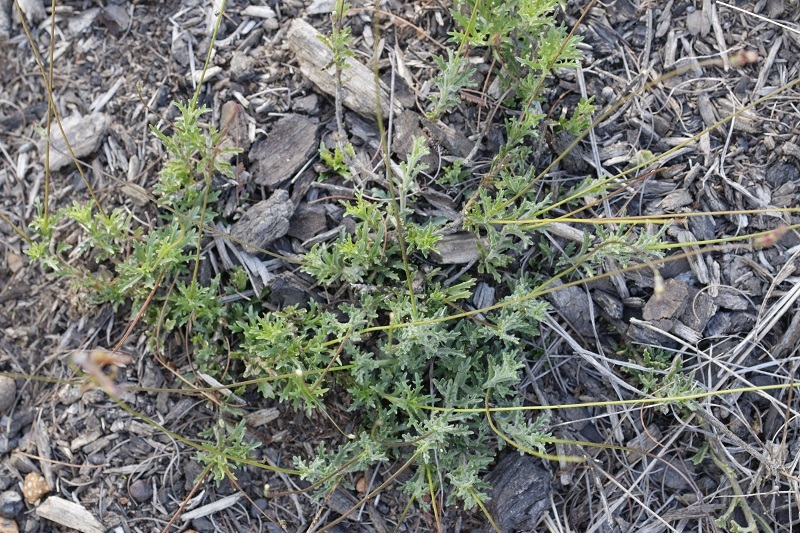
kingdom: Plantae
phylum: Tracheophyta
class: Magnoliopsida
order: Asterales
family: Campanulaceae
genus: Lobelia
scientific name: Lobelia tomentosa
